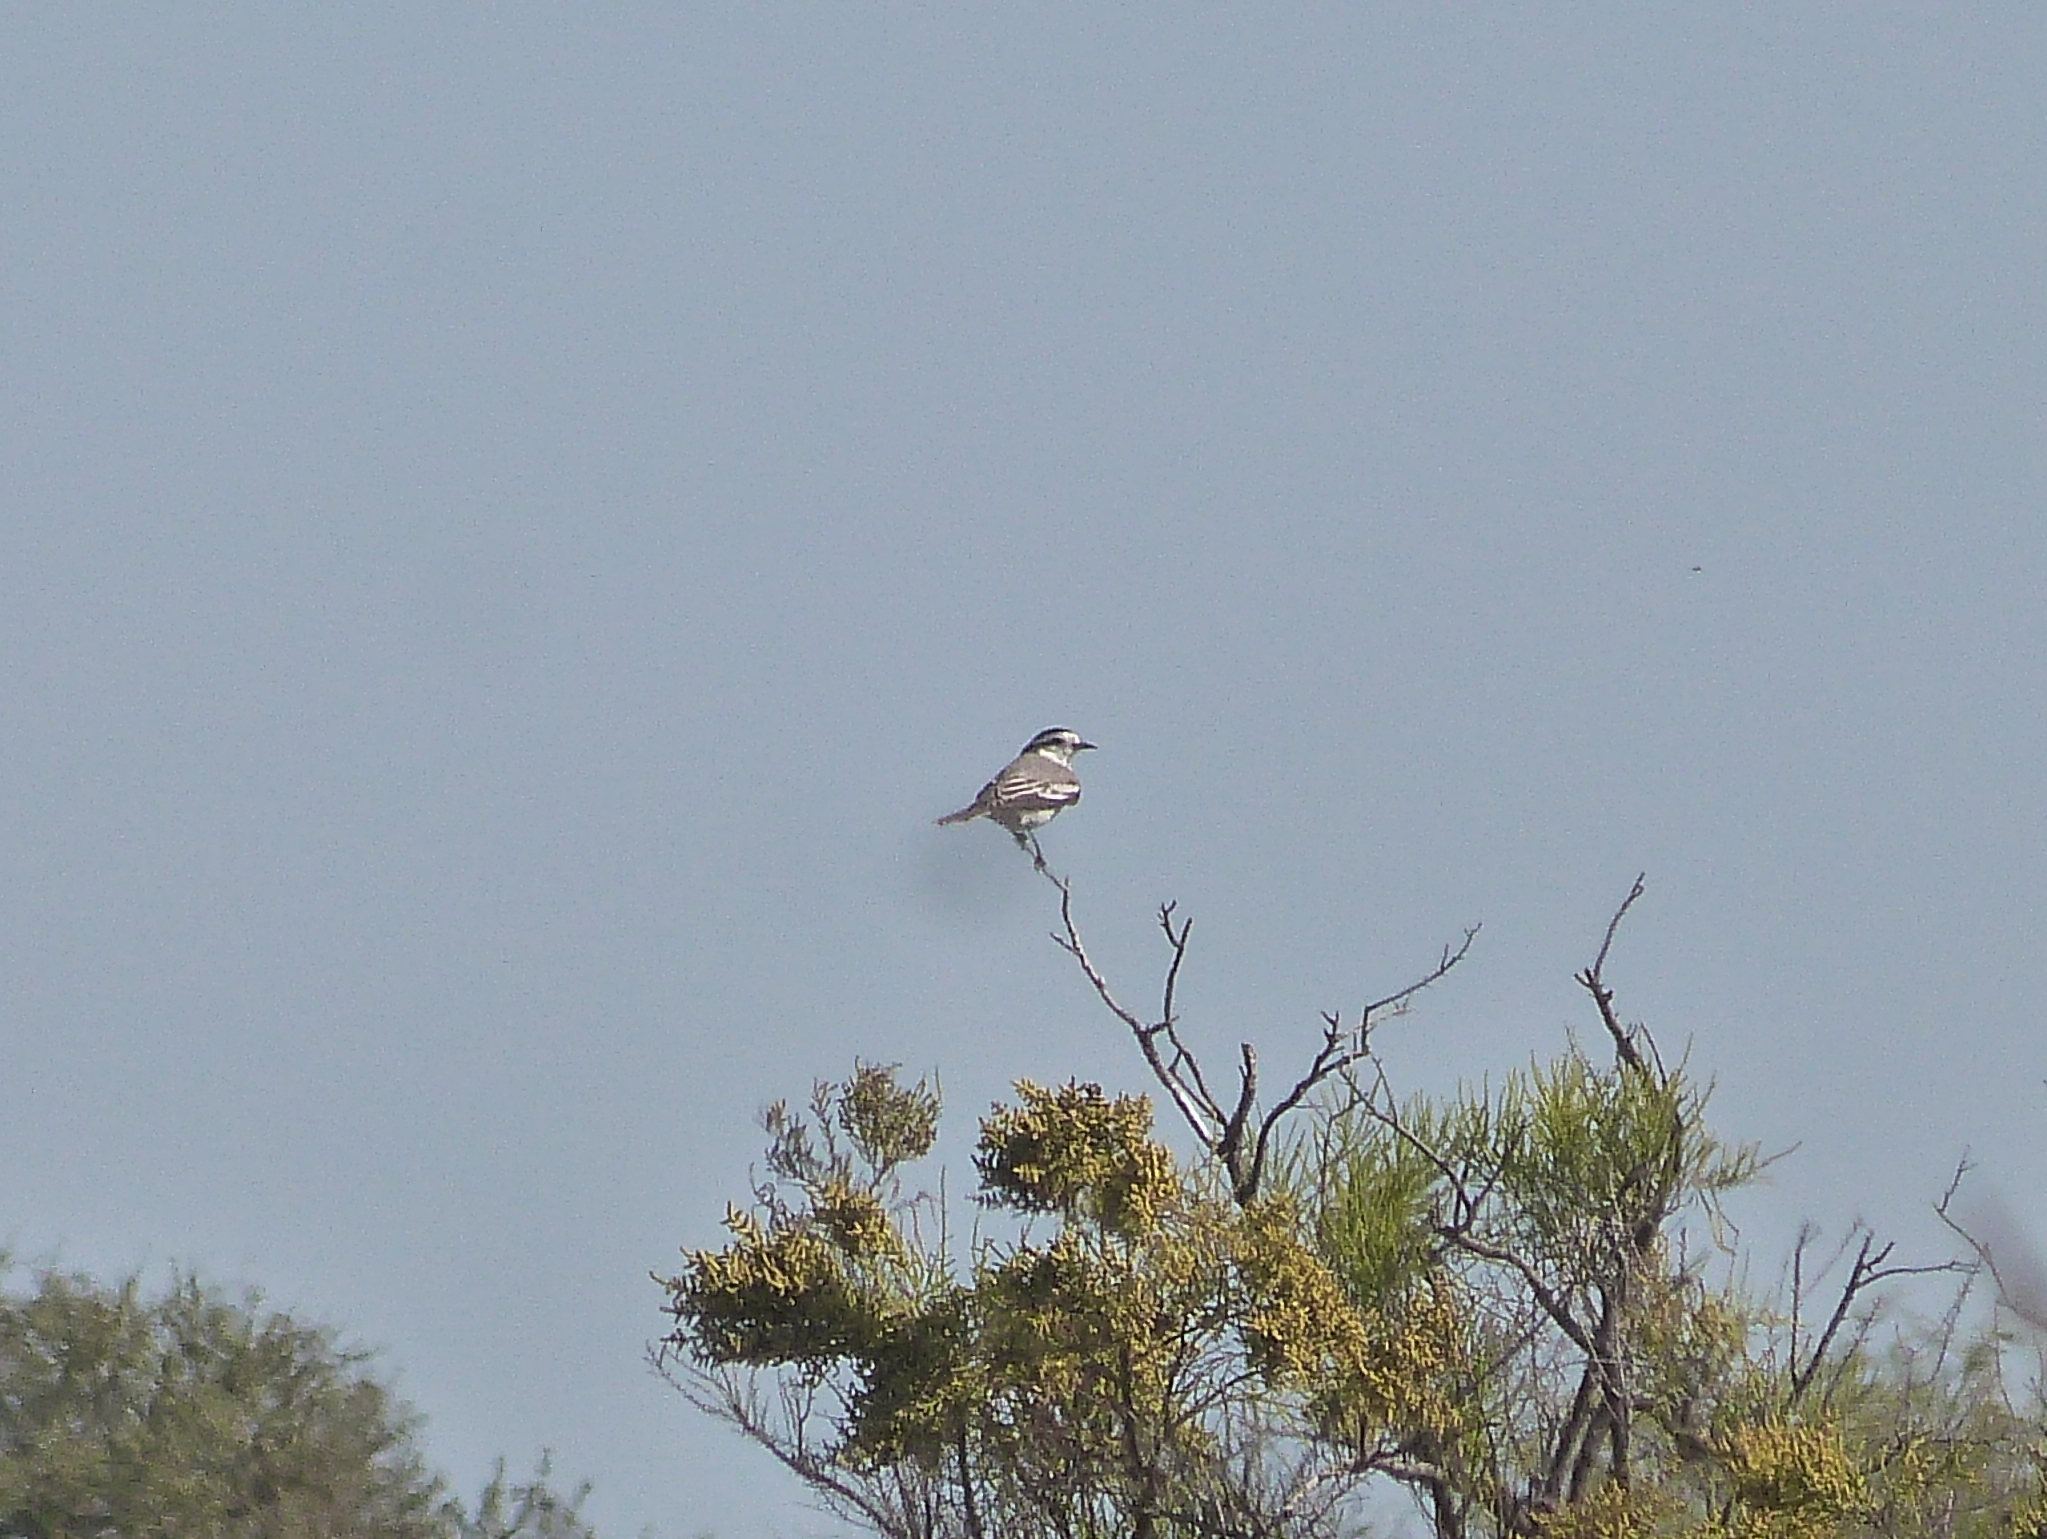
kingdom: Animalia
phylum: Chordata
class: Aves
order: Passeriformes
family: Tyrannidae
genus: Xolmis
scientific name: Xolmis coronatus
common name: Black-crowned monjita
